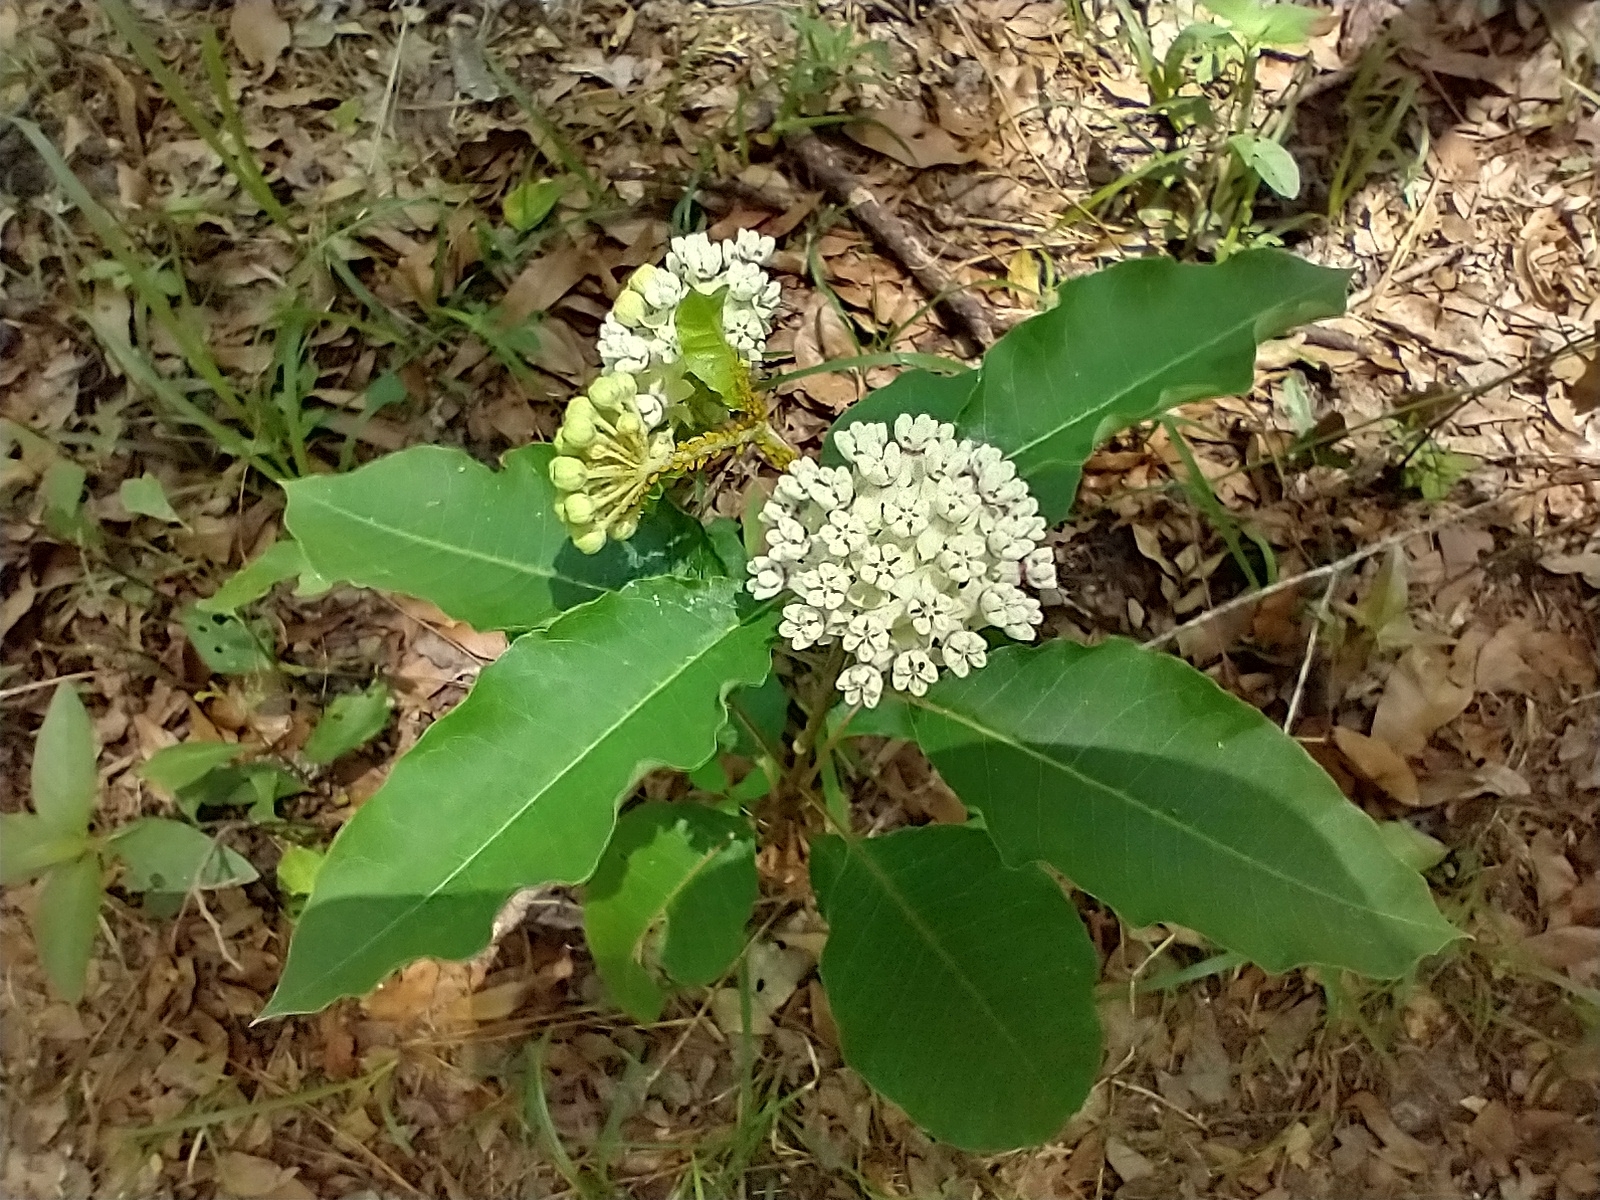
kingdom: Plantae
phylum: Tracheophyta
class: Magnoliopsida
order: Gentianales
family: Apocynaceae
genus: Asclepias
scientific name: Asclepias variegata
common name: Variegated milkweed
